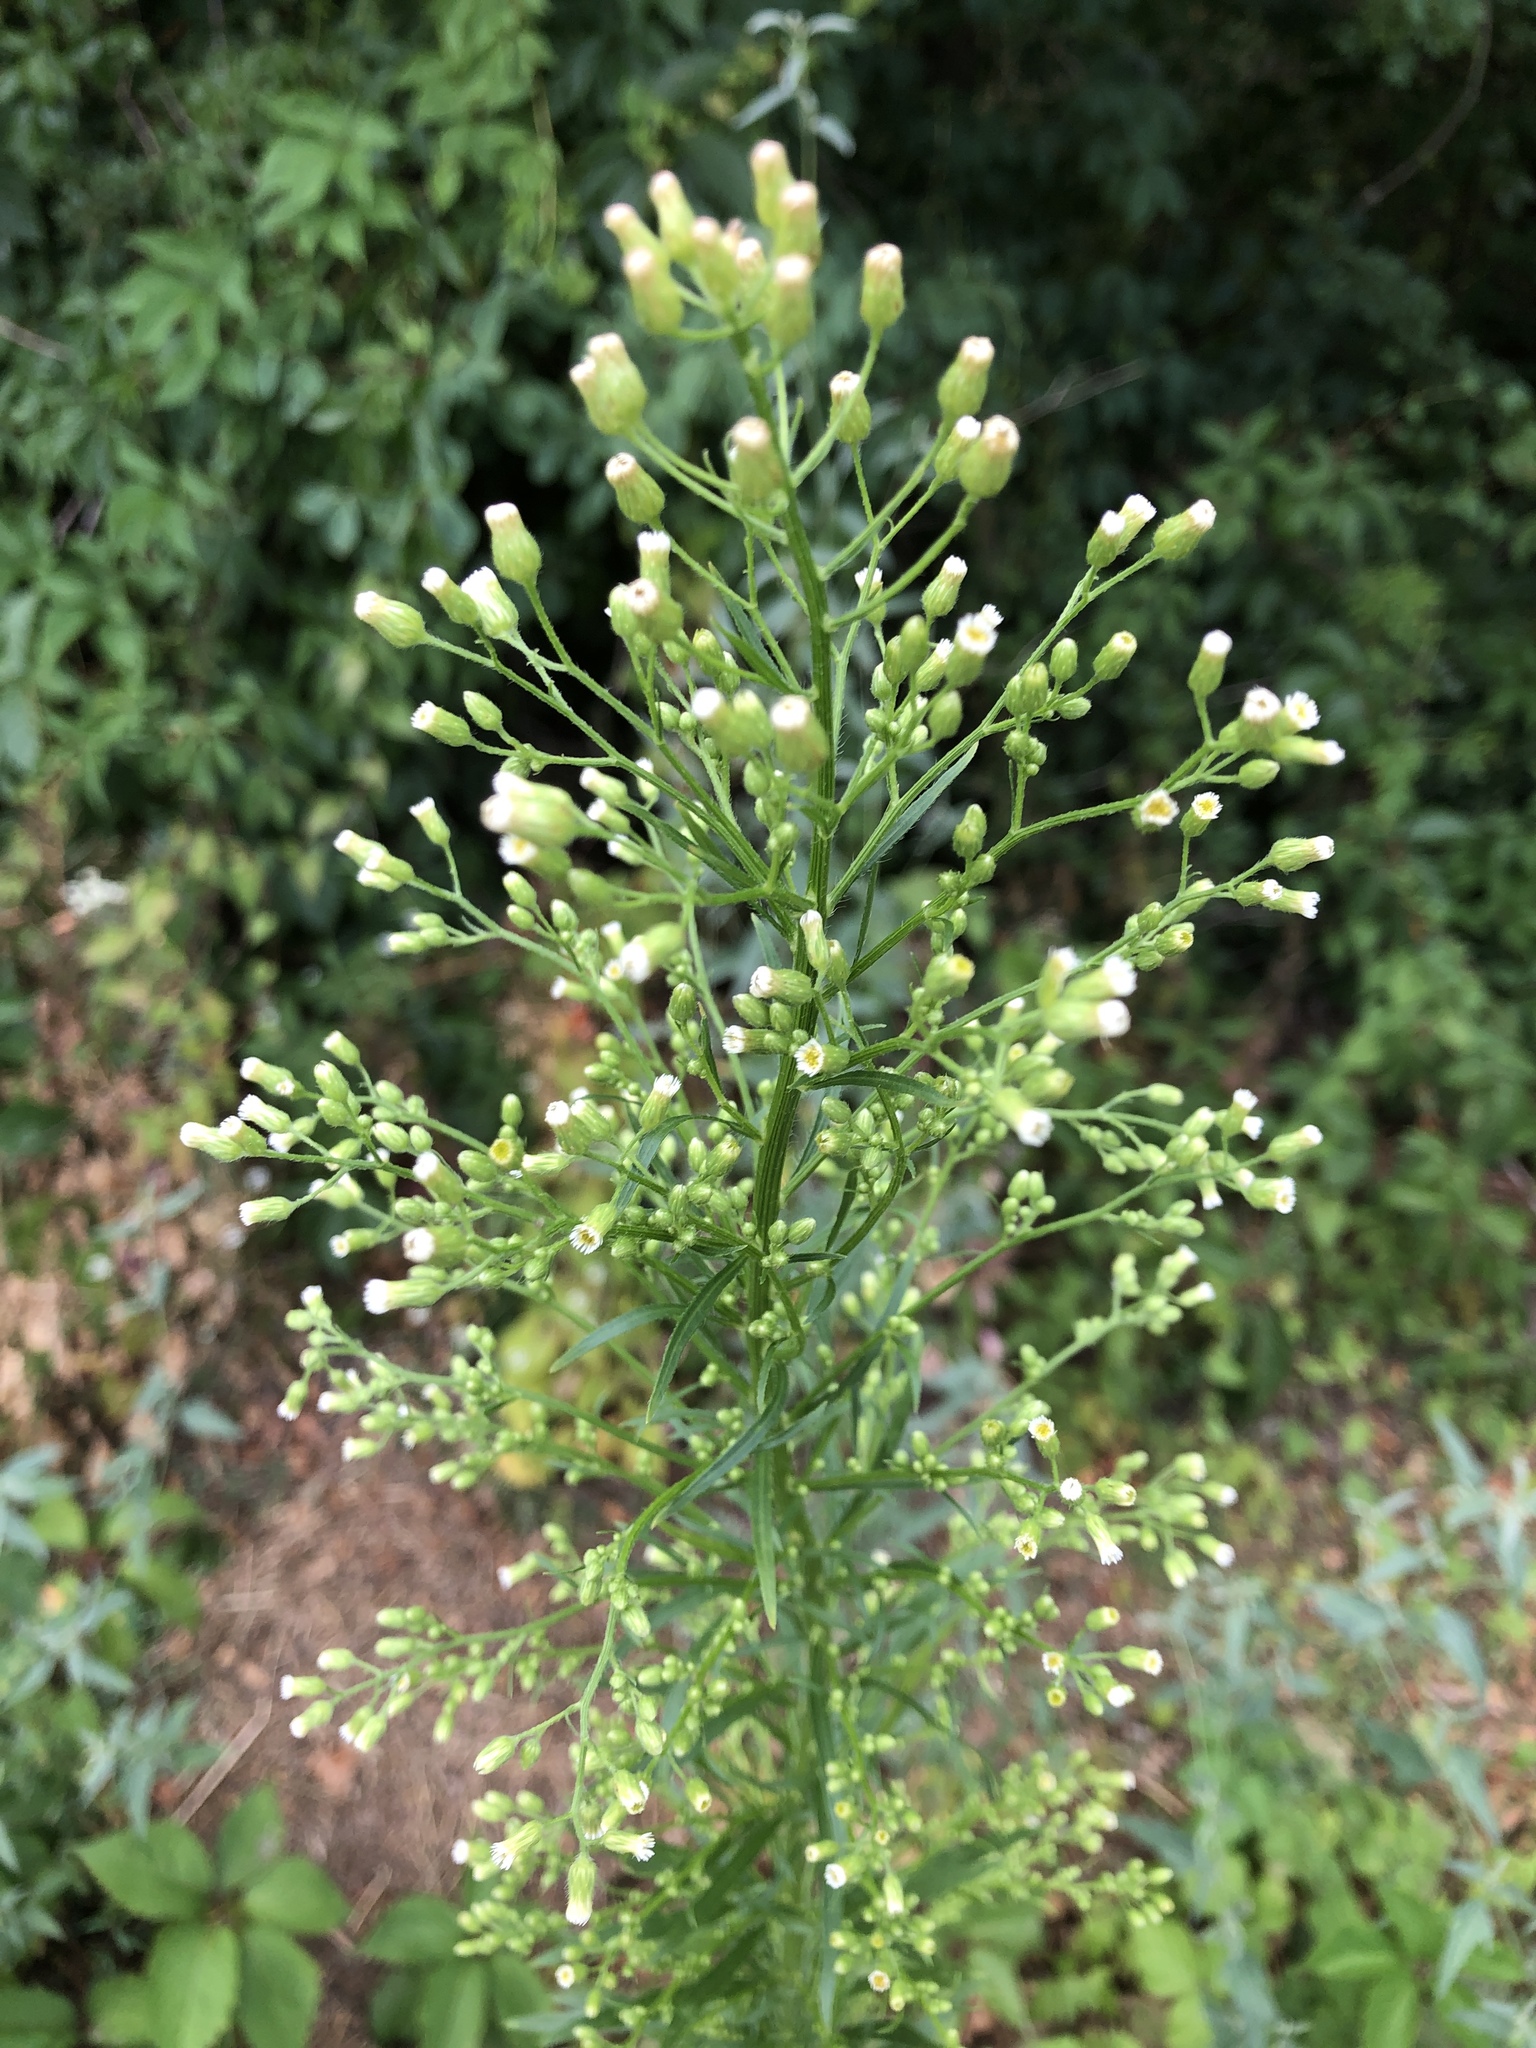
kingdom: Plantae
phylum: Tracheophyta
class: Magnoliopsida
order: Asterales
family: Asteraceae
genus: Erigeron
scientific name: Erigeron canadensis
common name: Canadian fleabane
